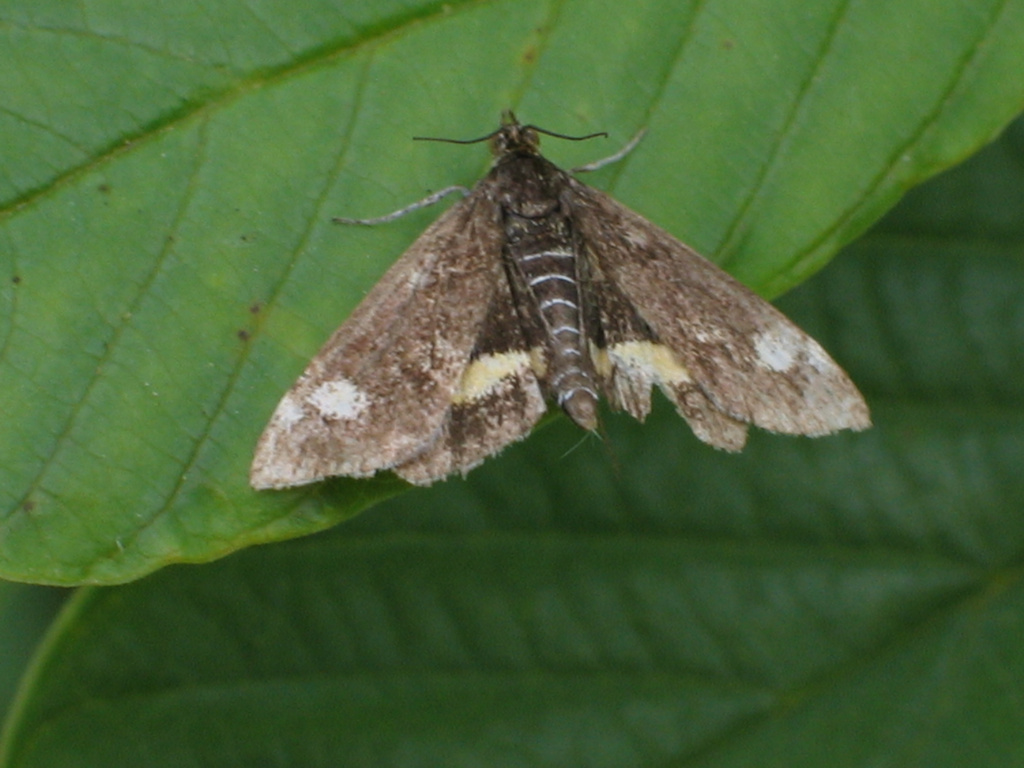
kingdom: Animalia
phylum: Arthropoda
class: Insecta
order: Lepidoptera
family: Crambidae
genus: Pyrausta
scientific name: Pyrausta aurata
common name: Small purple & gold
